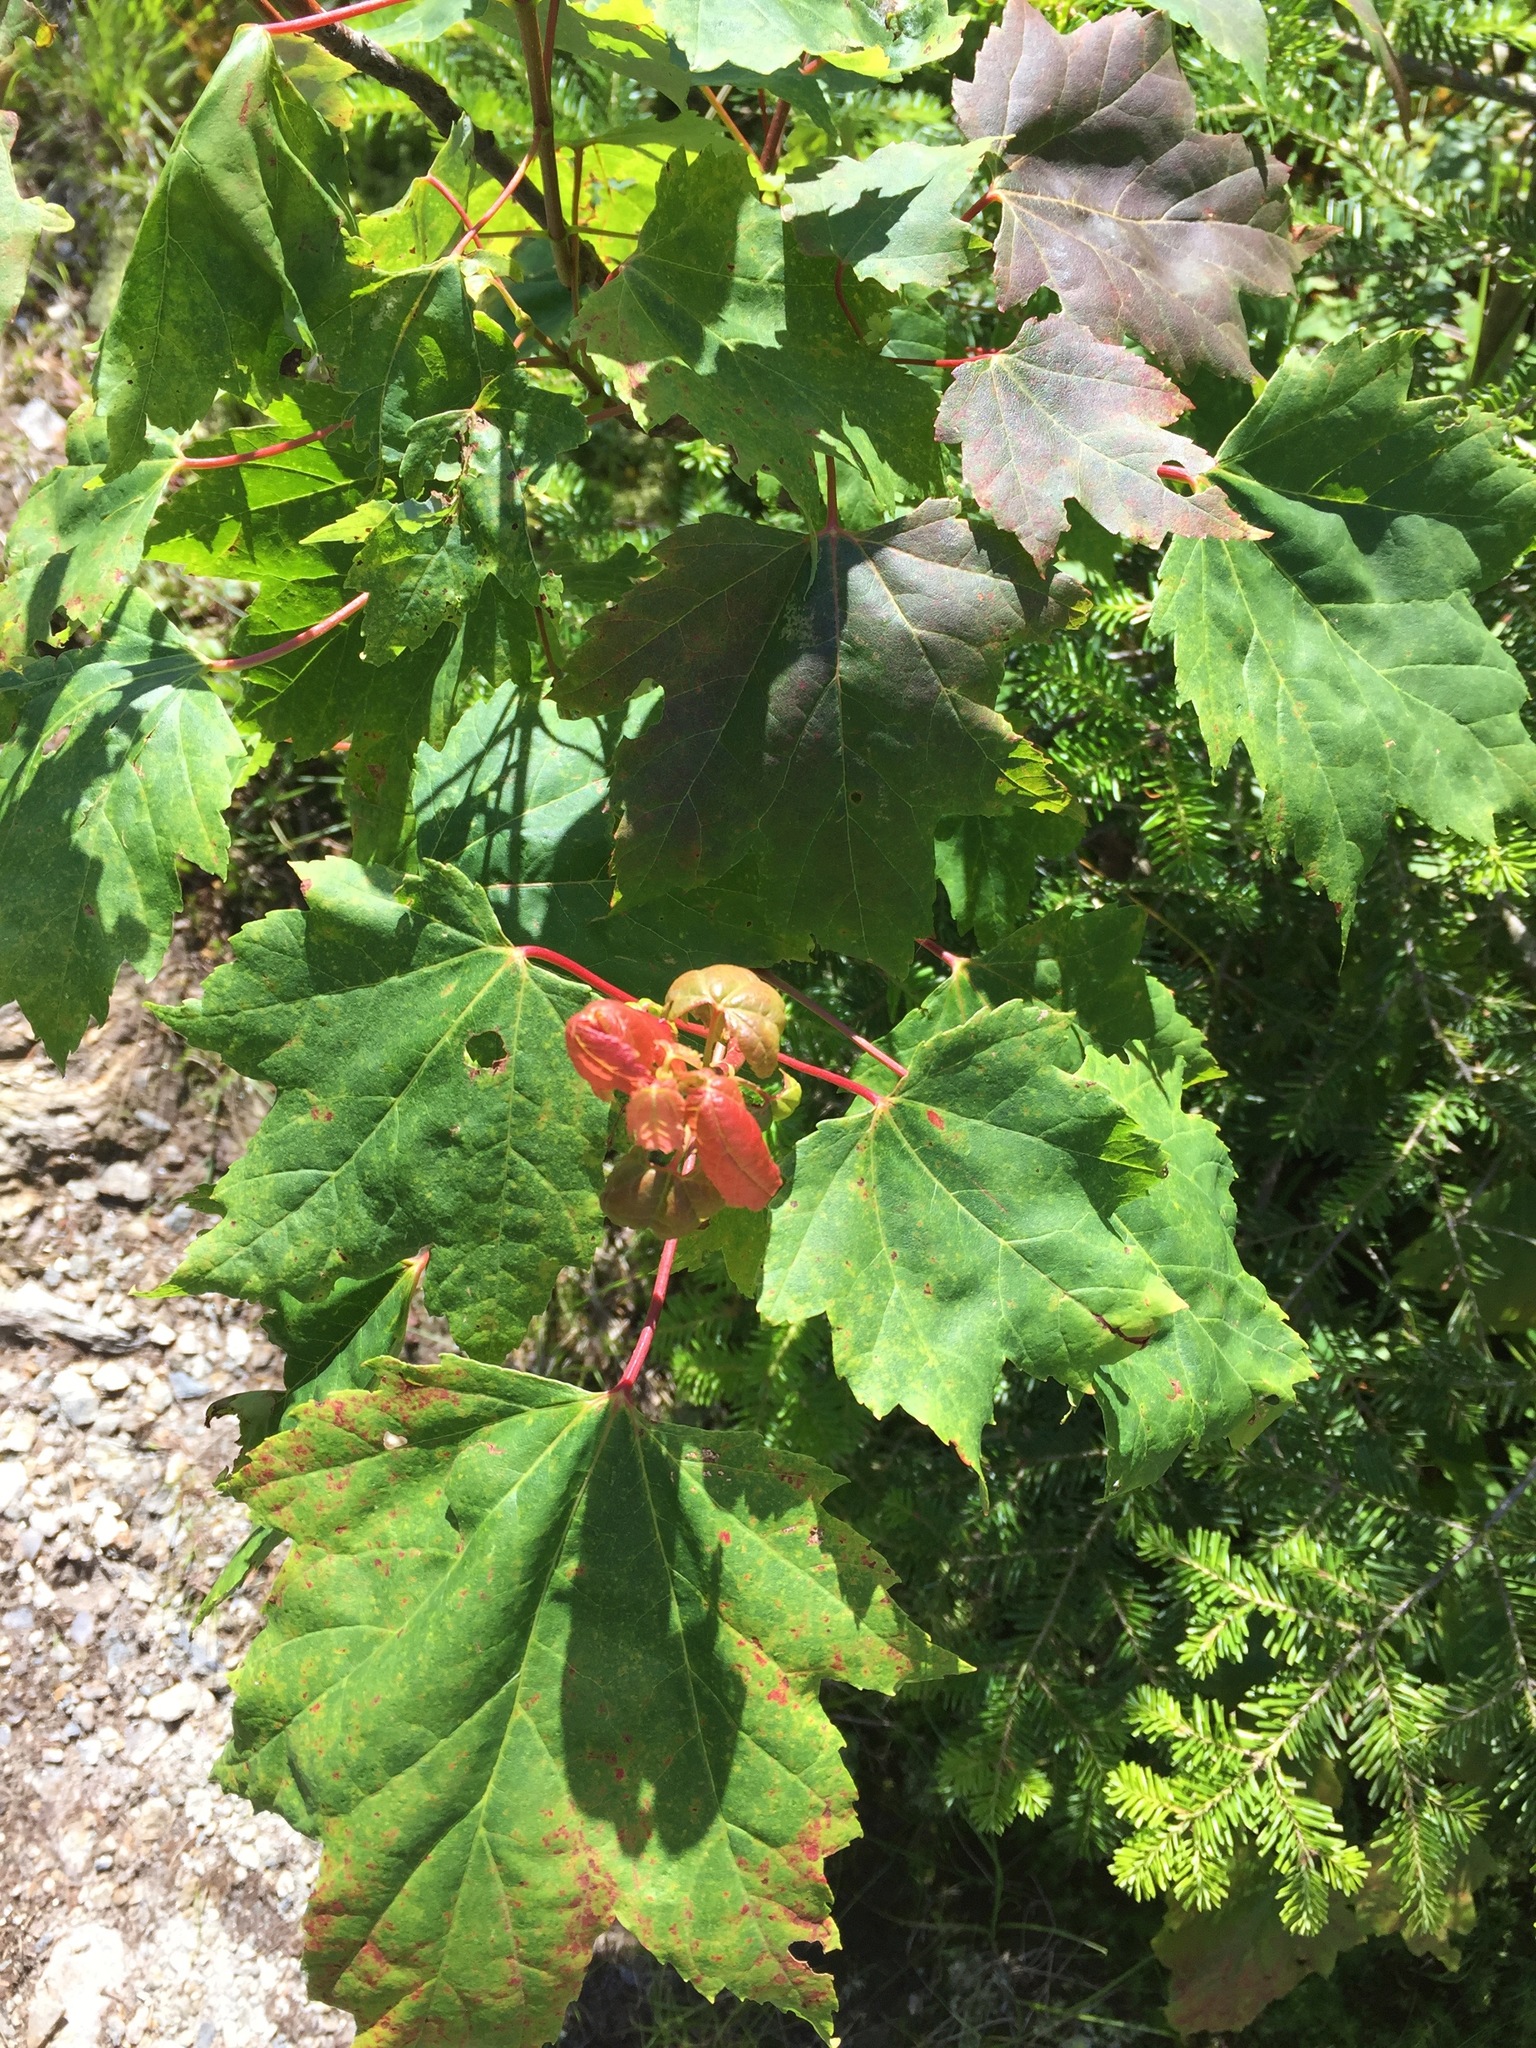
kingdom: Plantae
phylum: Tracheophyta
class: Magnoliopsida
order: Sapindales
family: Sapindaceae
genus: Acer
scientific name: Acer rubrum
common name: Red maple
